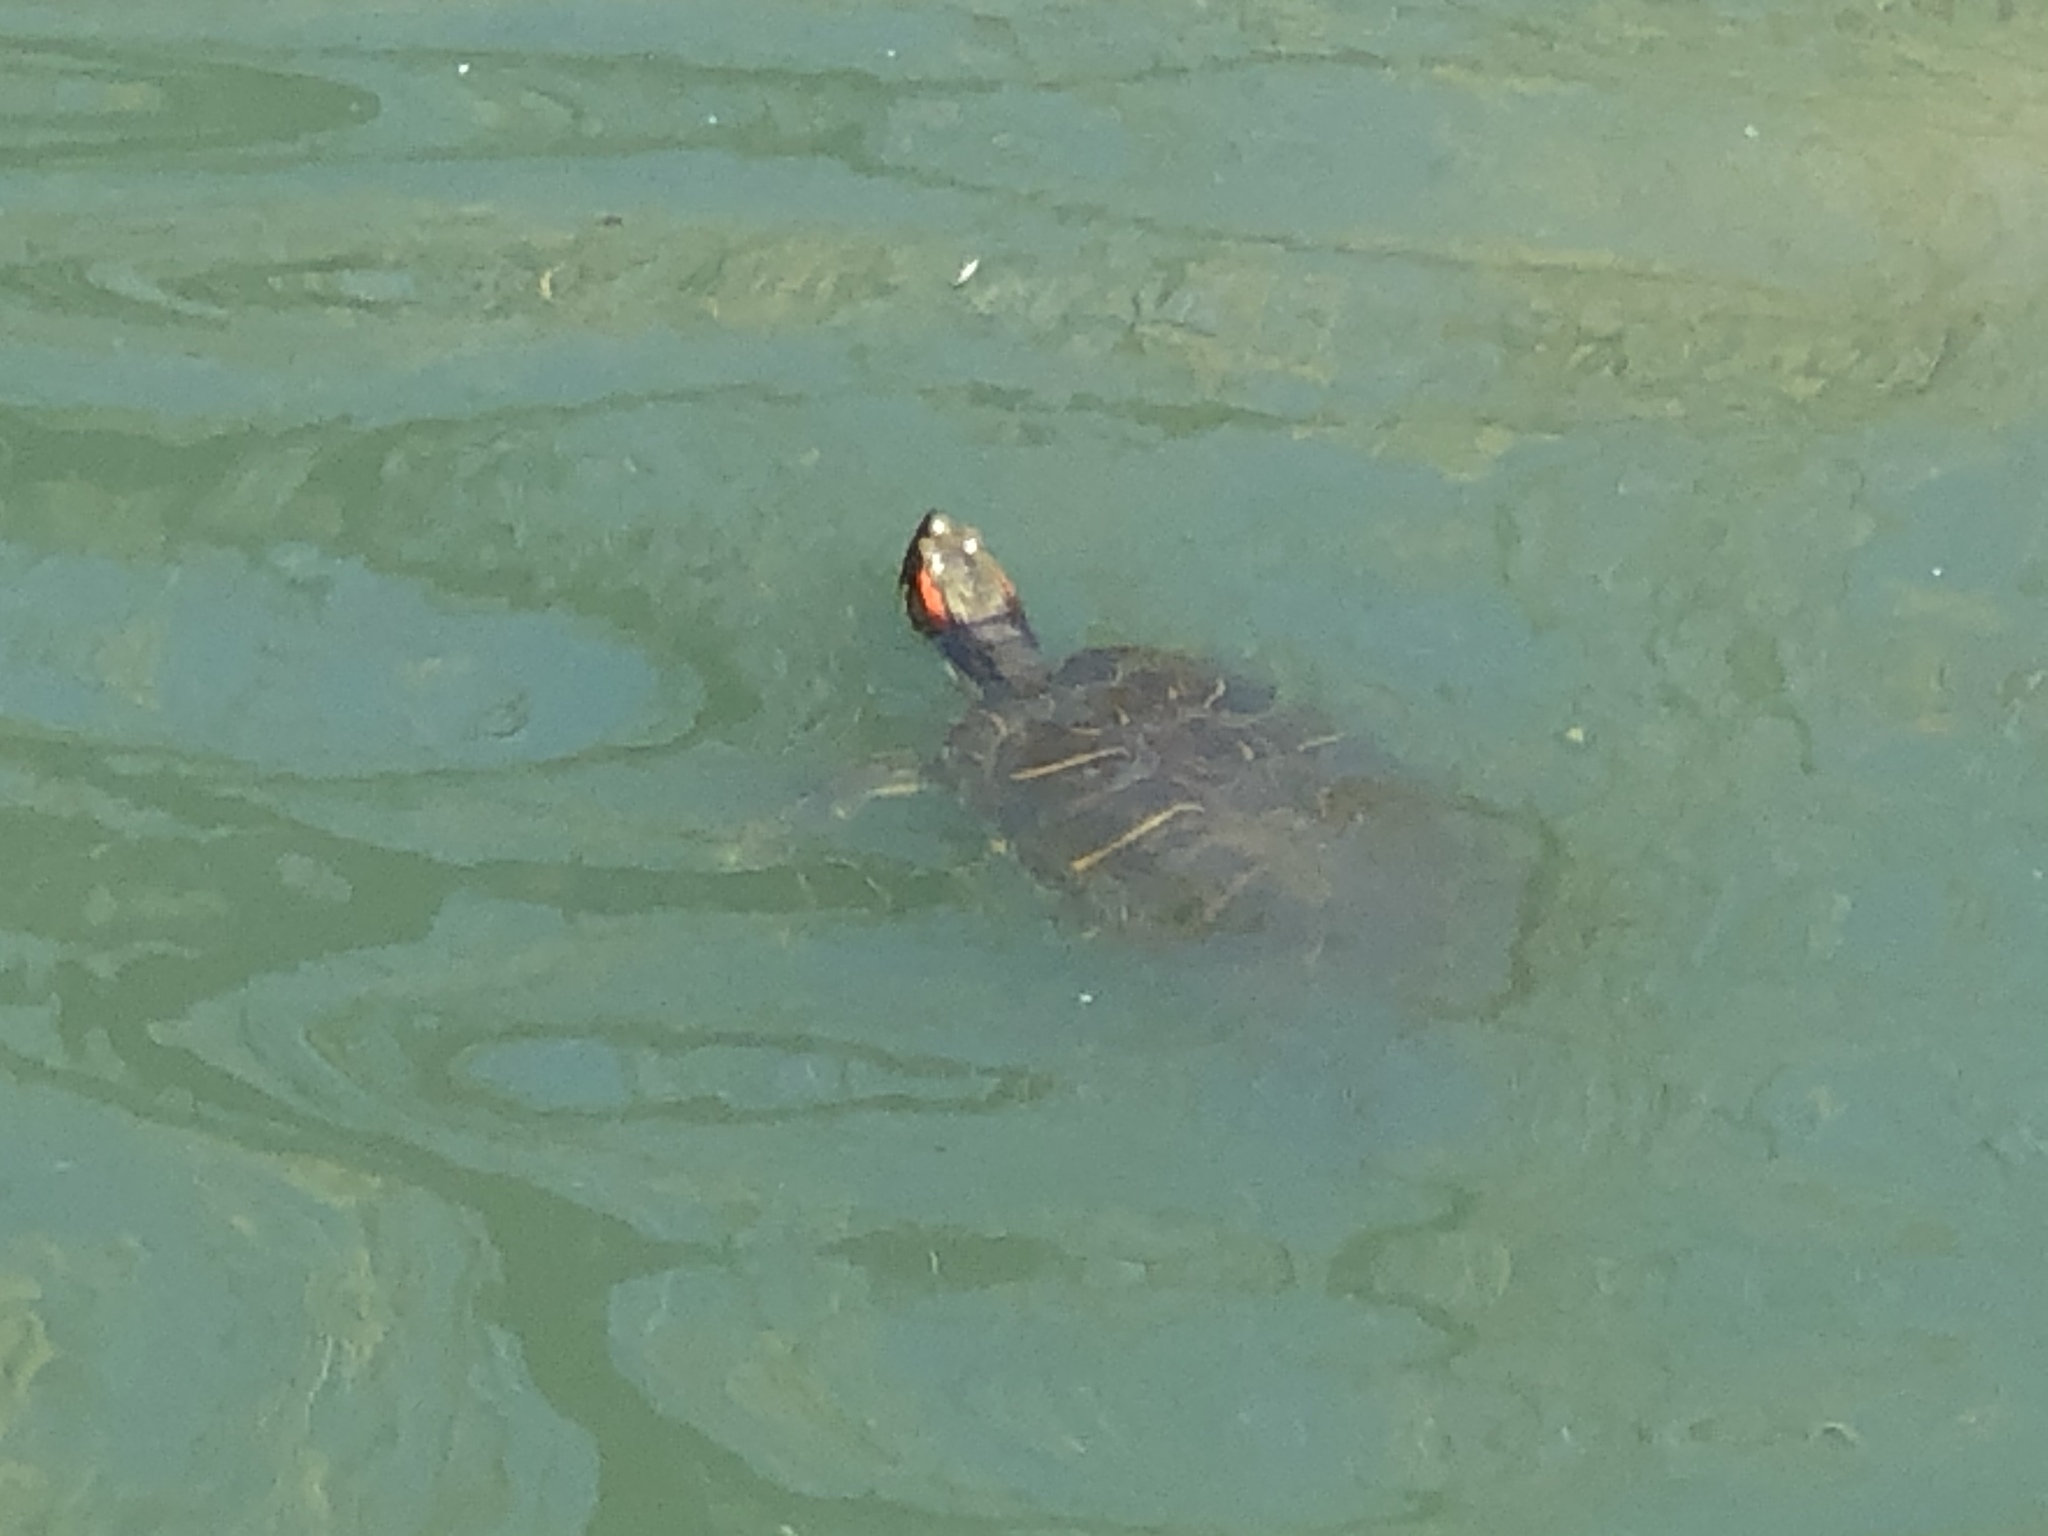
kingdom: Animalia
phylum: Chordata
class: Testudines
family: Emydidae
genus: Trachemys
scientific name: Trachemys scripta
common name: Slider
